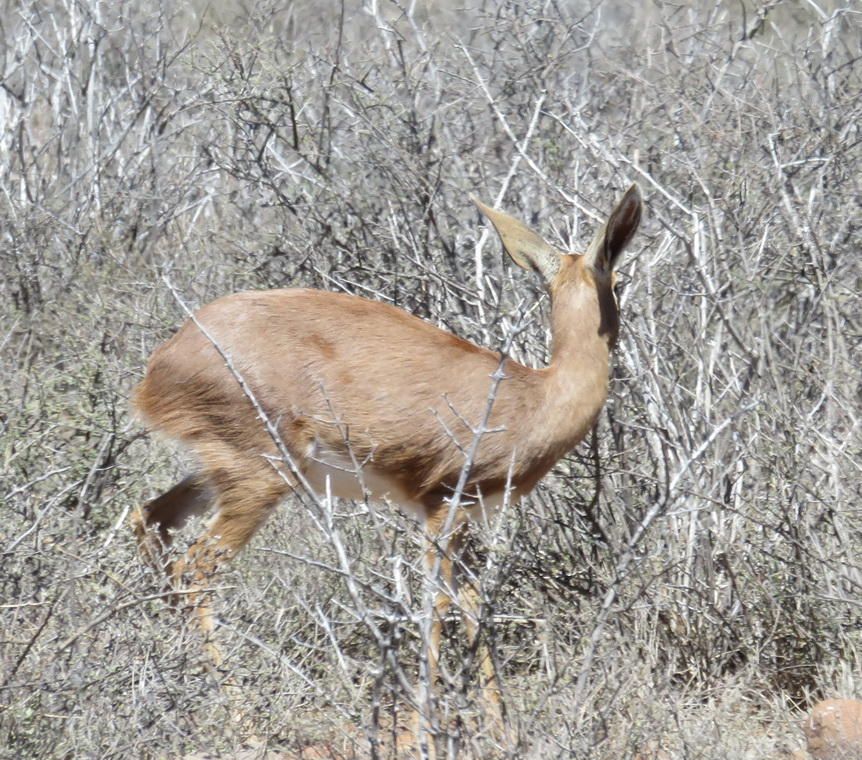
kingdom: Animalia
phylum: Chordata
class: Mammalia
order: Artiodactyla
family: Bovidae
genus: Raphicerus
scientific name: Raphicerus campestris
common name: Steenbok
